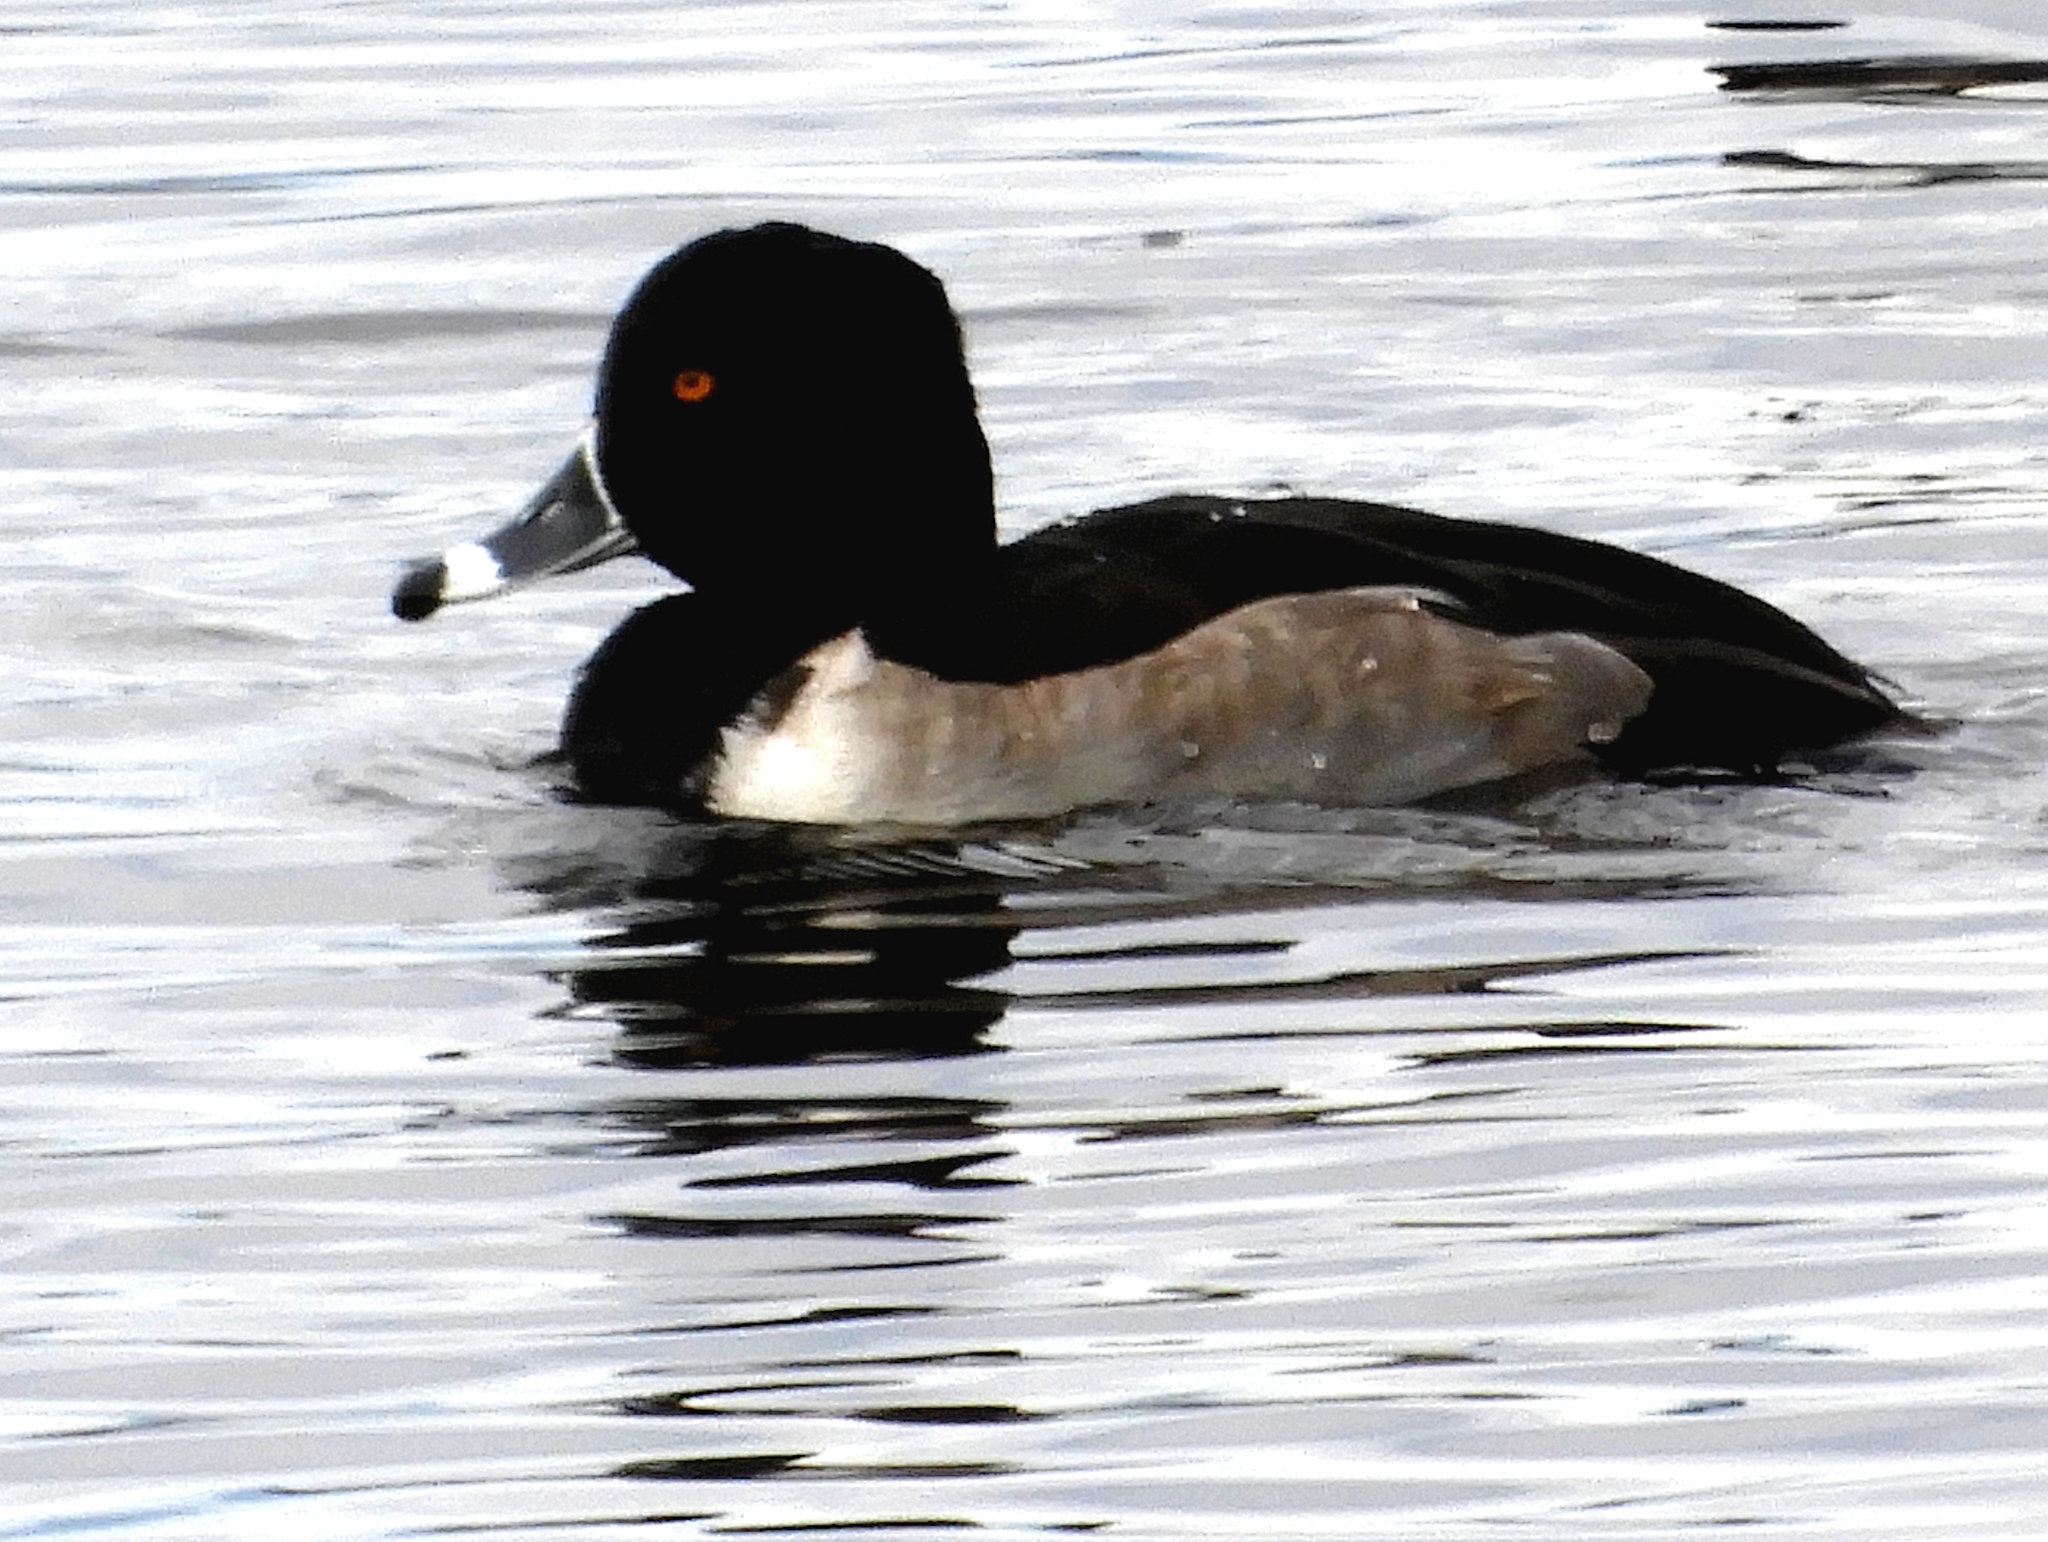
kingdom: Animalia
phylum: Chordata
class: Aves
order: Anseriformes
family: Anatidae
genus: Aythya
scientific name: Aythya collaris
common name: Ring-necked duck
